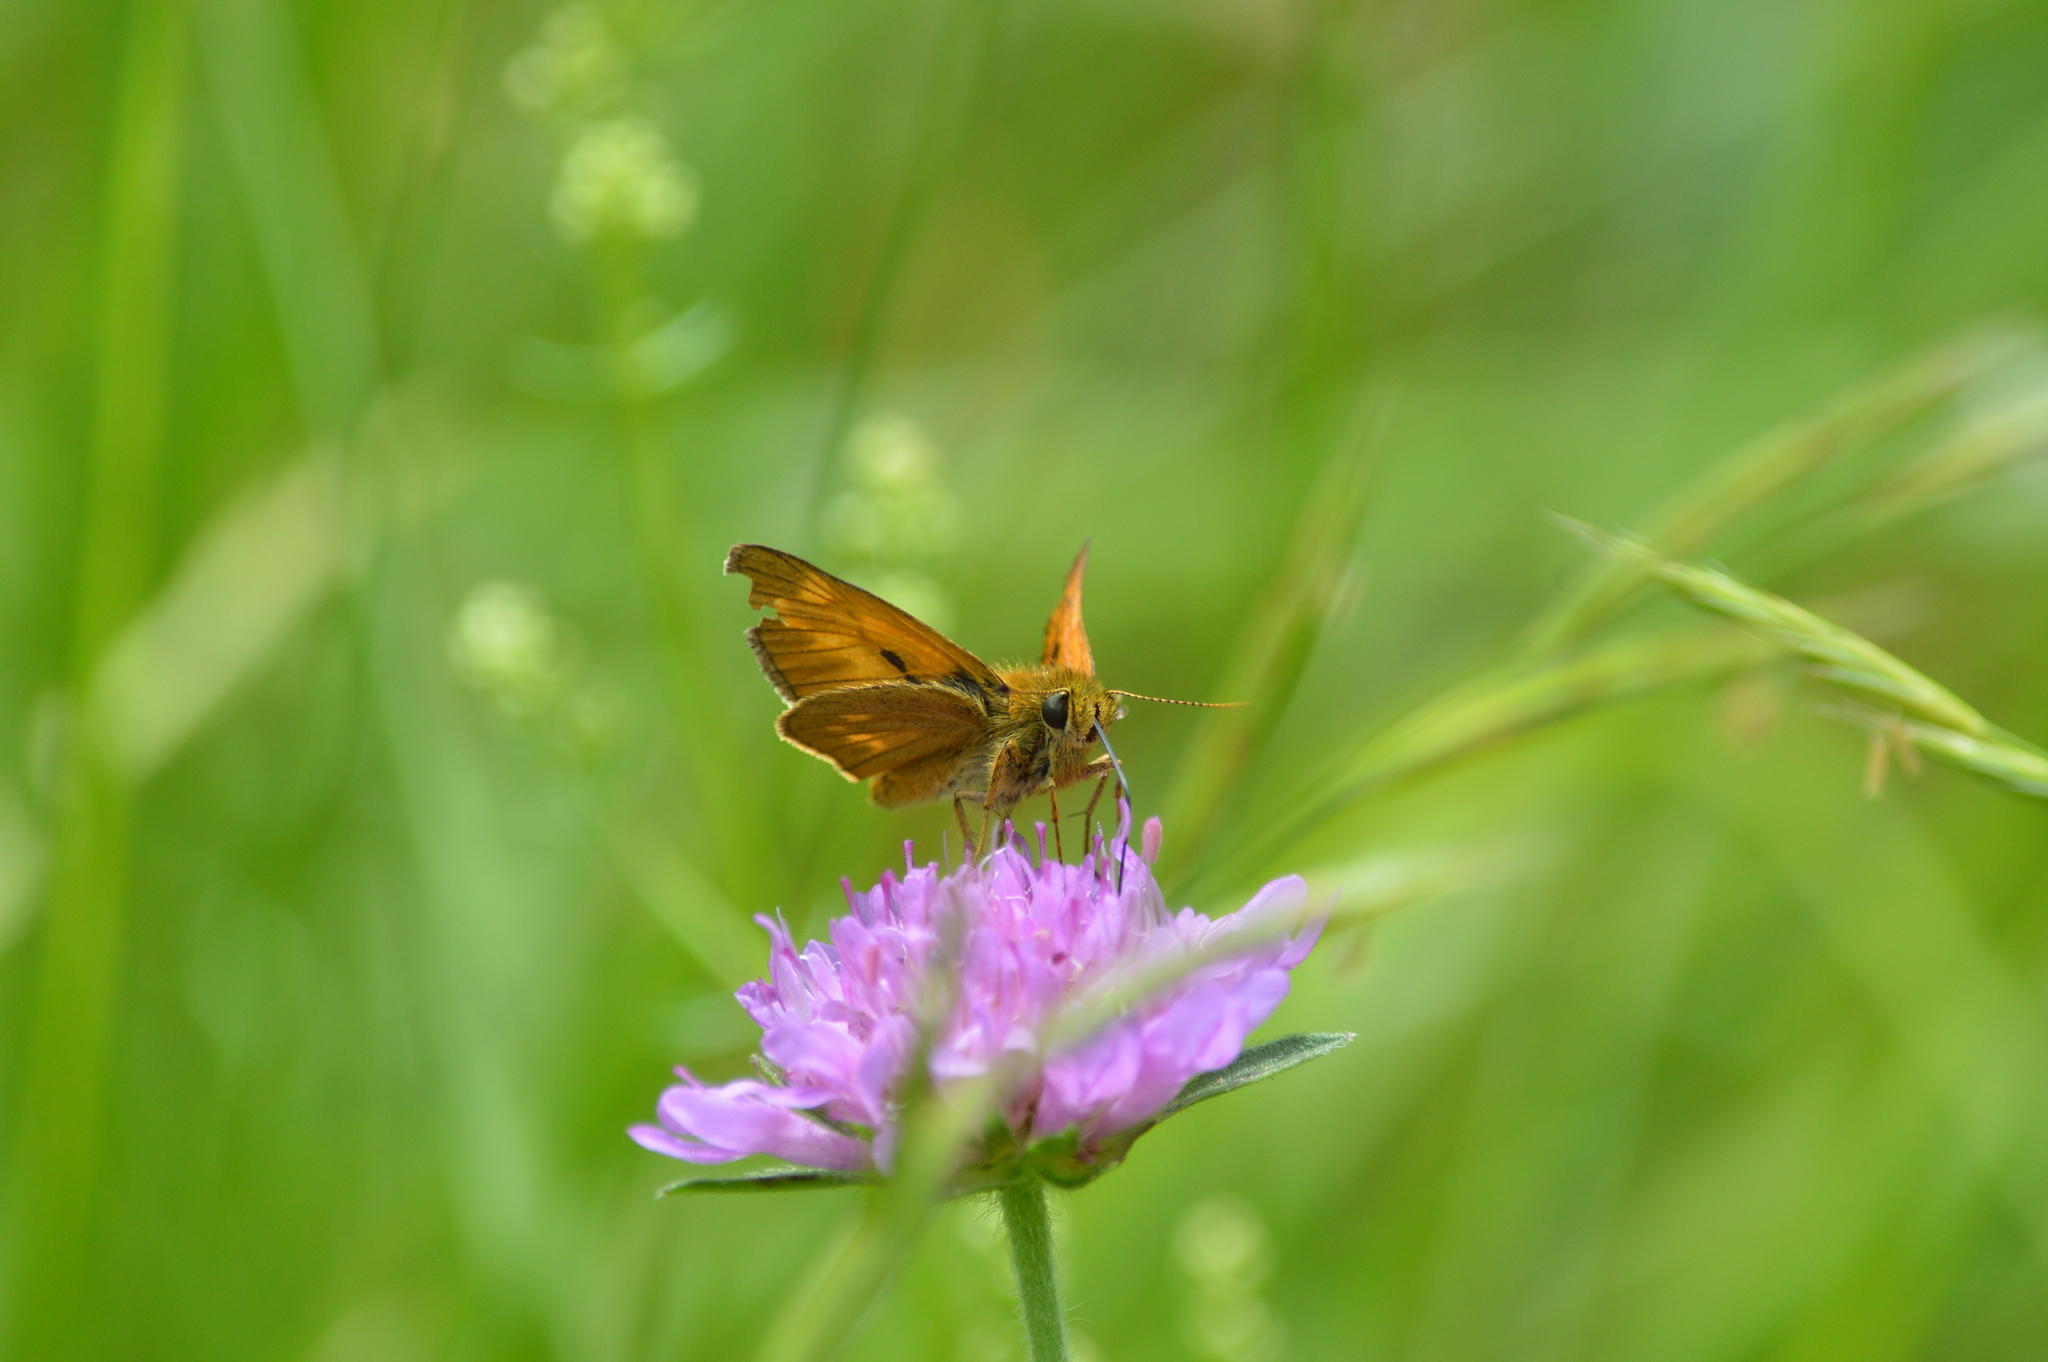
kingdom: Animalia
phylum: Arthropoda
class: Insecta
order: Lepidoptera
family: Hesperiidae
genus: Ochlodes
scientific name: Ochlodes venata
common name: Large skipper
